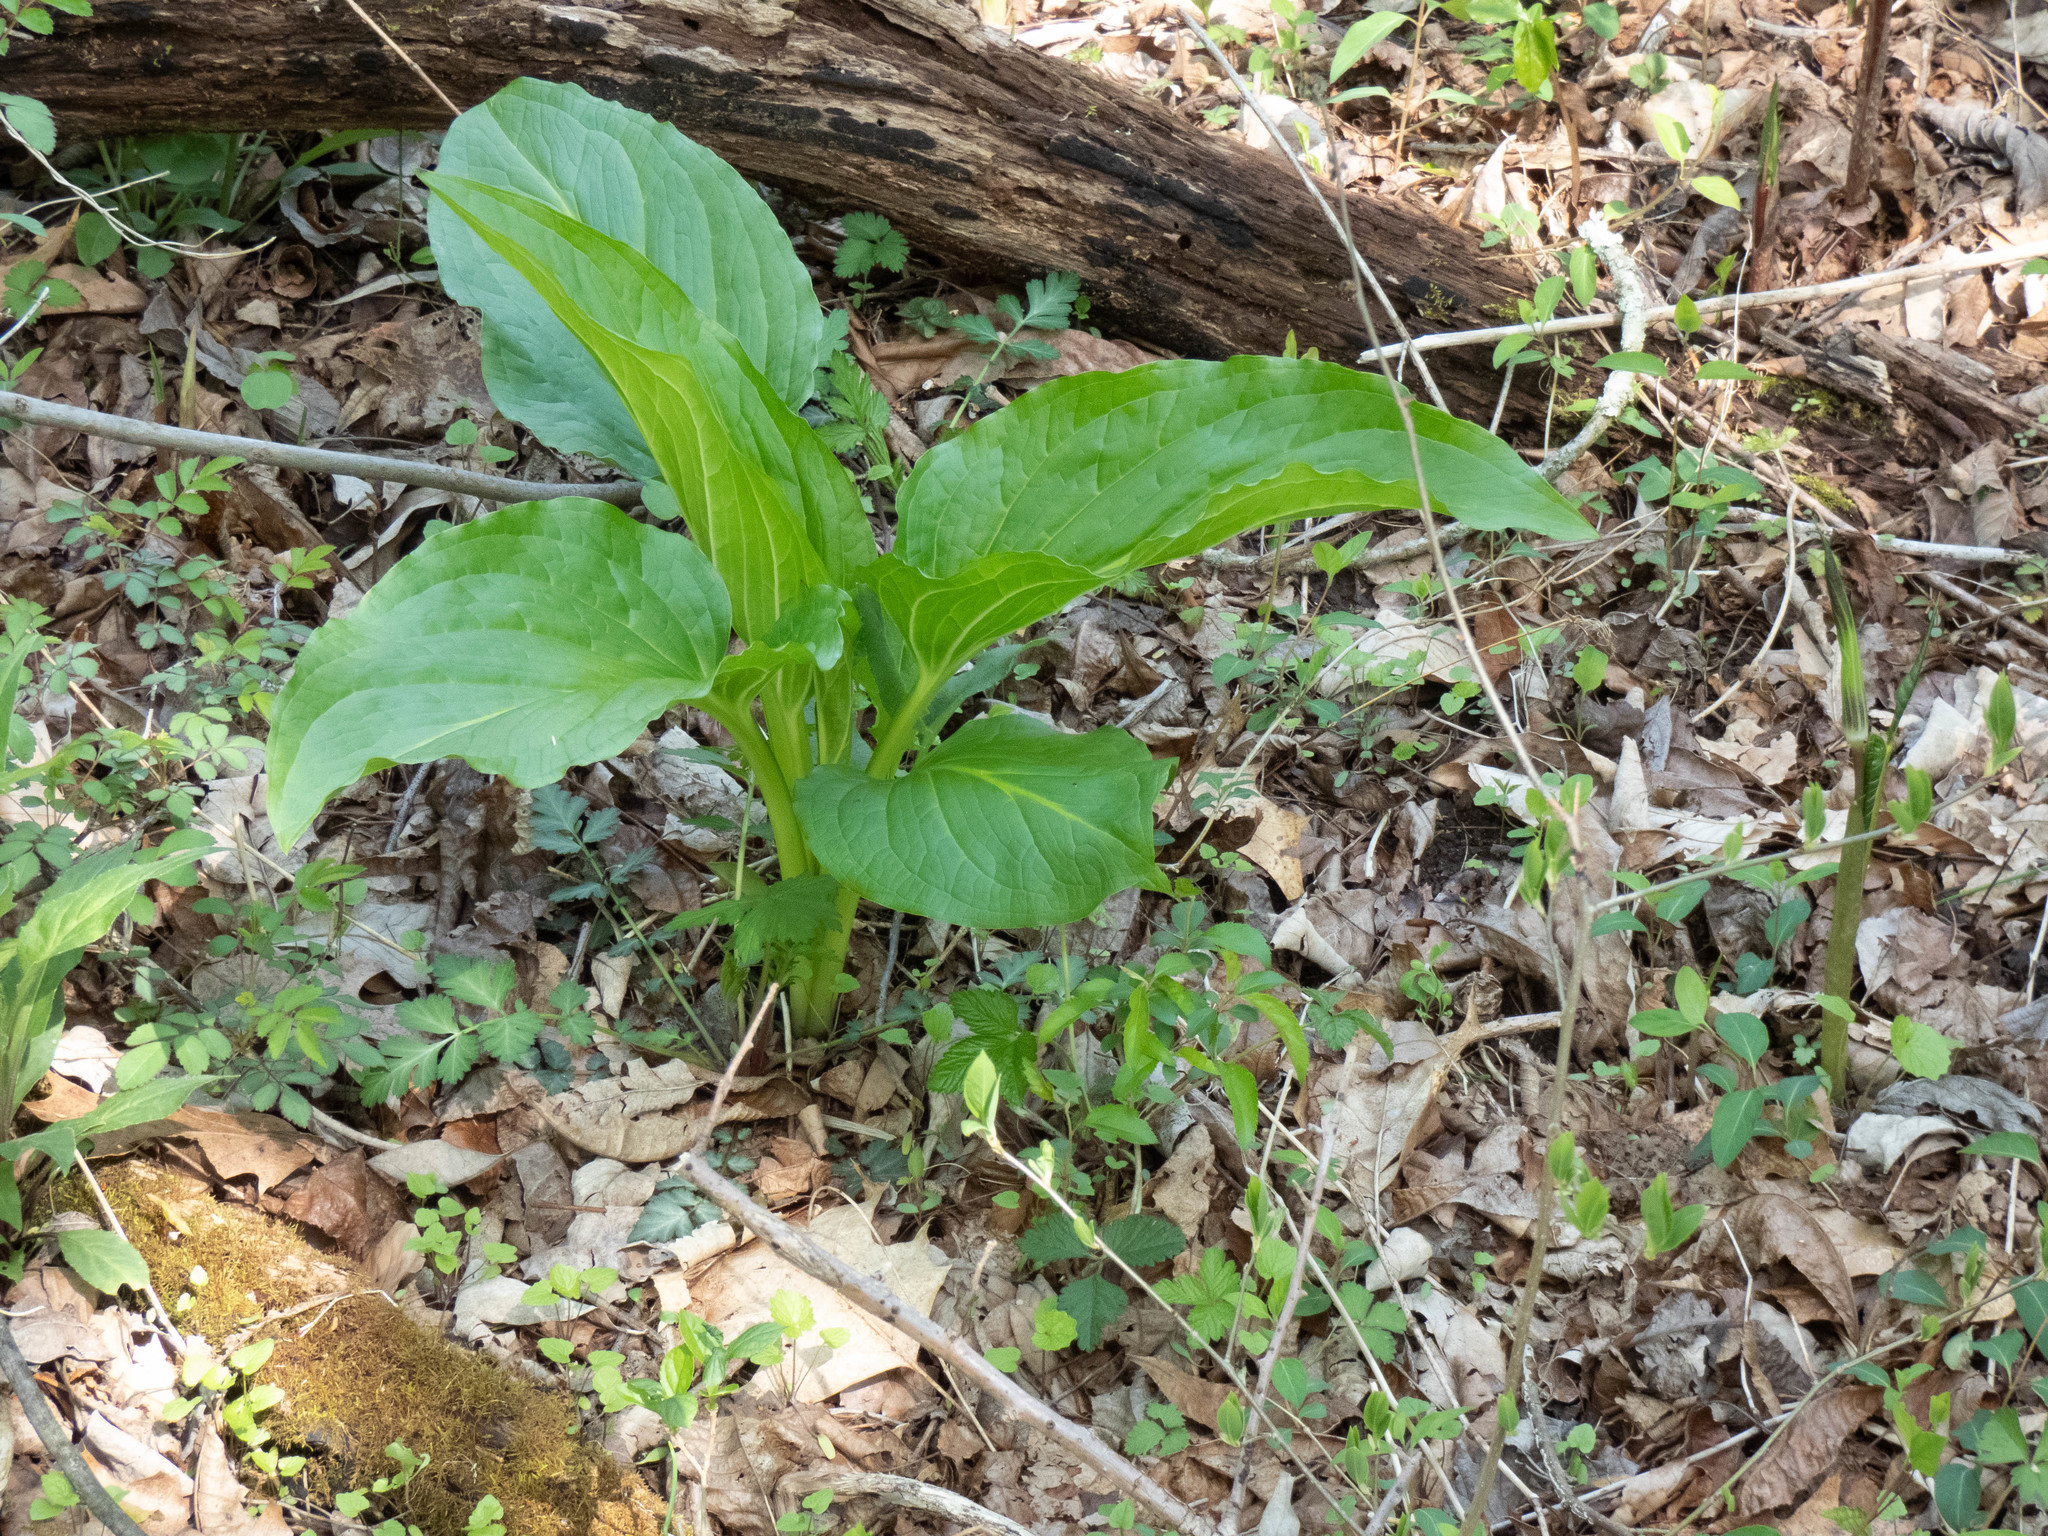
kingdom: Plantae
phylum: Tracheophyta
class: Liliopsida
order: Alismatales
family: Araceae
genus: Symplocarpus
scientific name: Symplocarpus foetidus
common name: Eastern skunk cabbage
